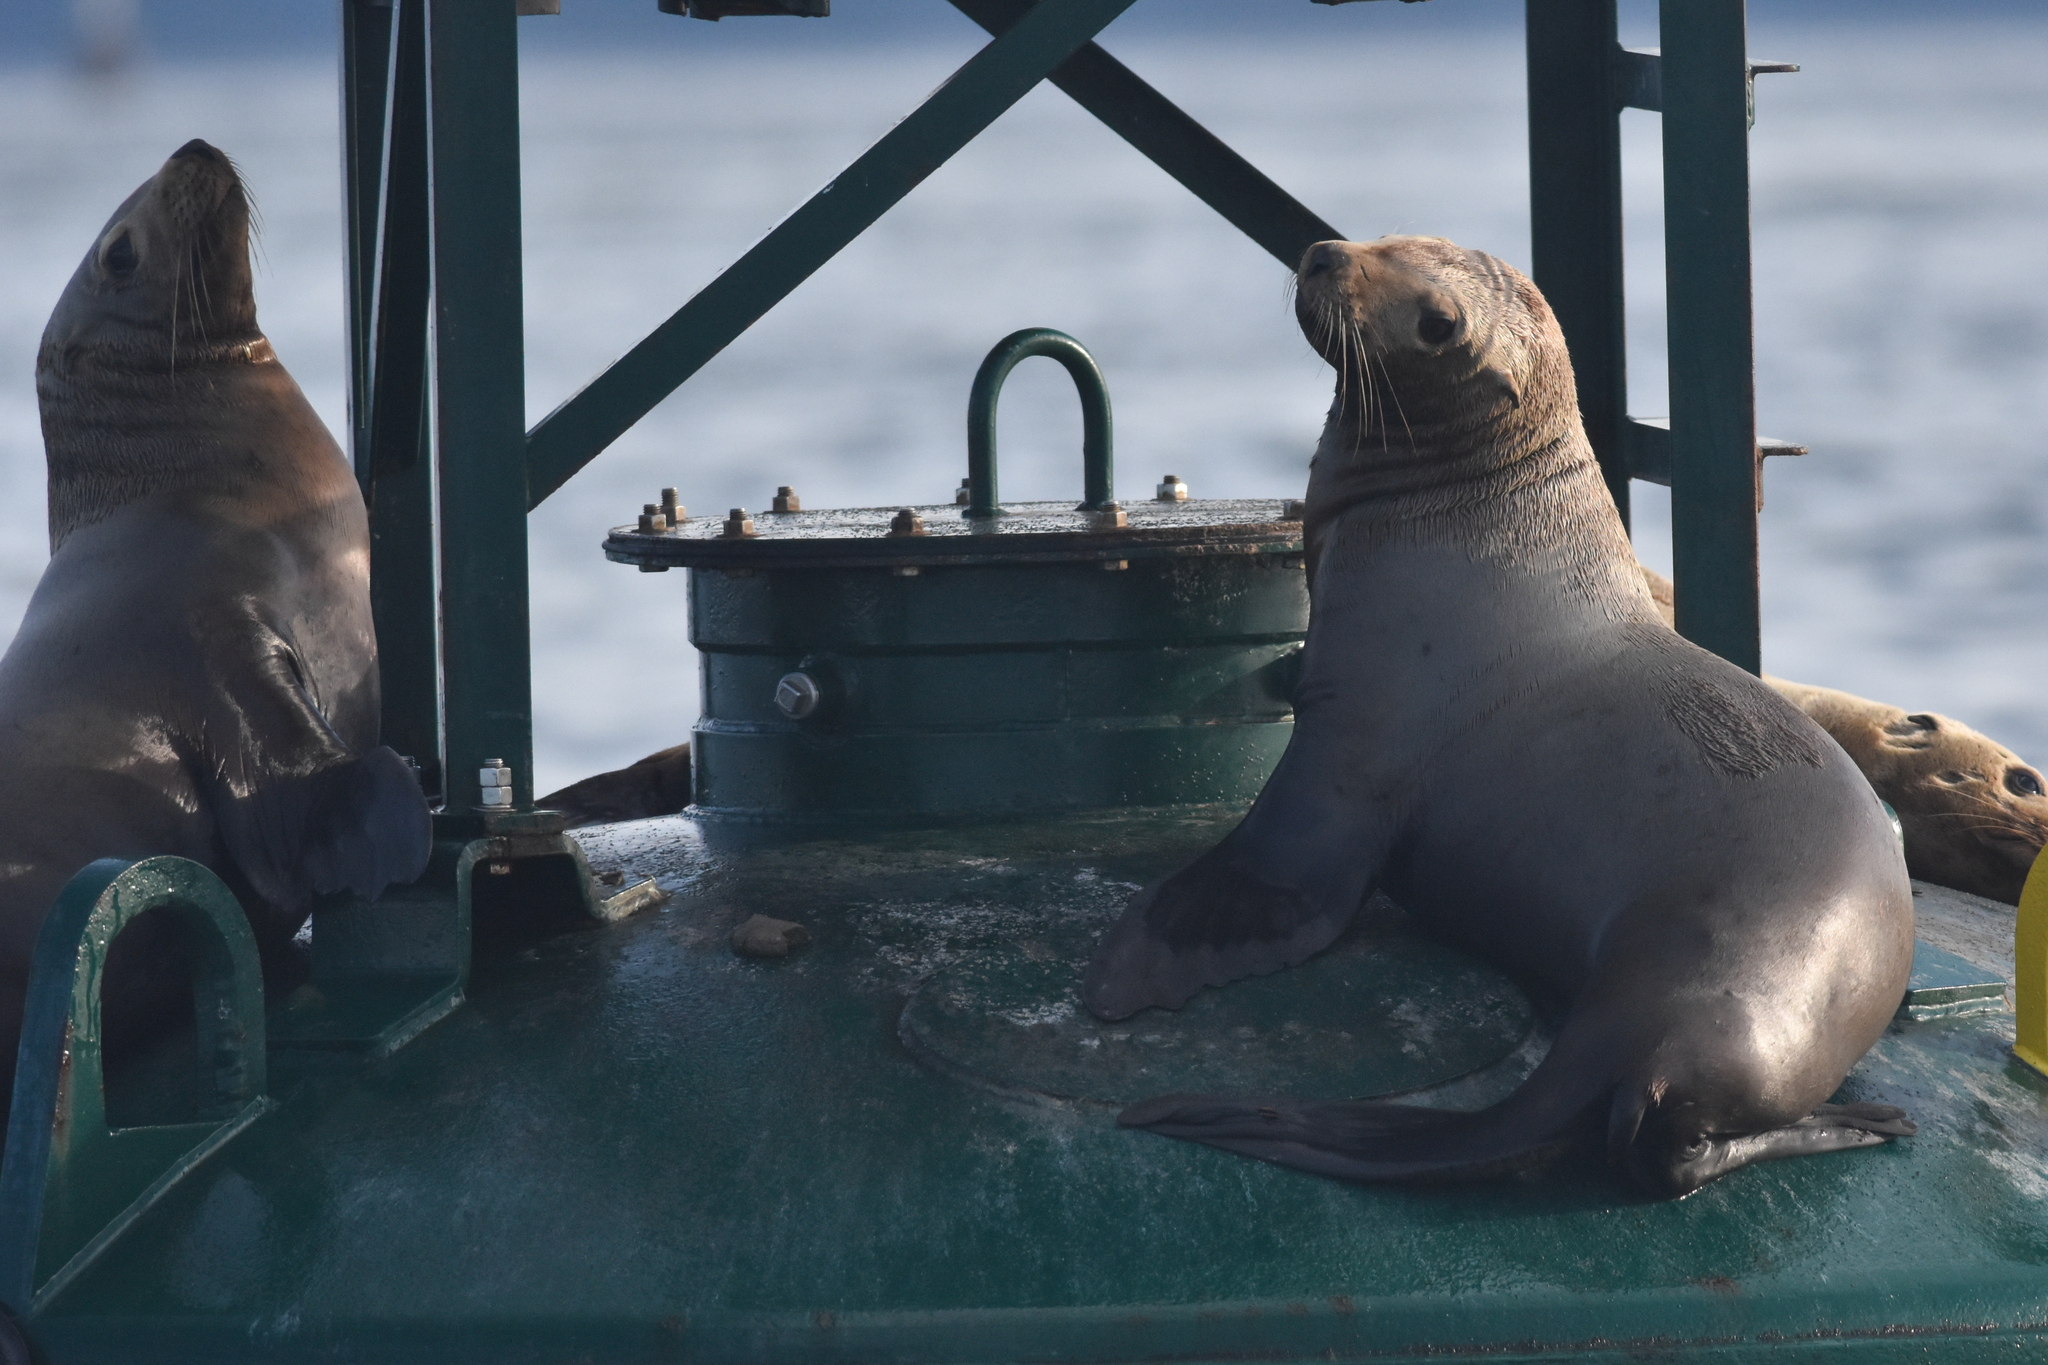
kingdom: Animalia
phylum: Chordata
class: Mammalia
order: Carnivora
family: Otariidae
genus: Zalophus
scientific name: Zalophus californianus
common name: California sea lion
